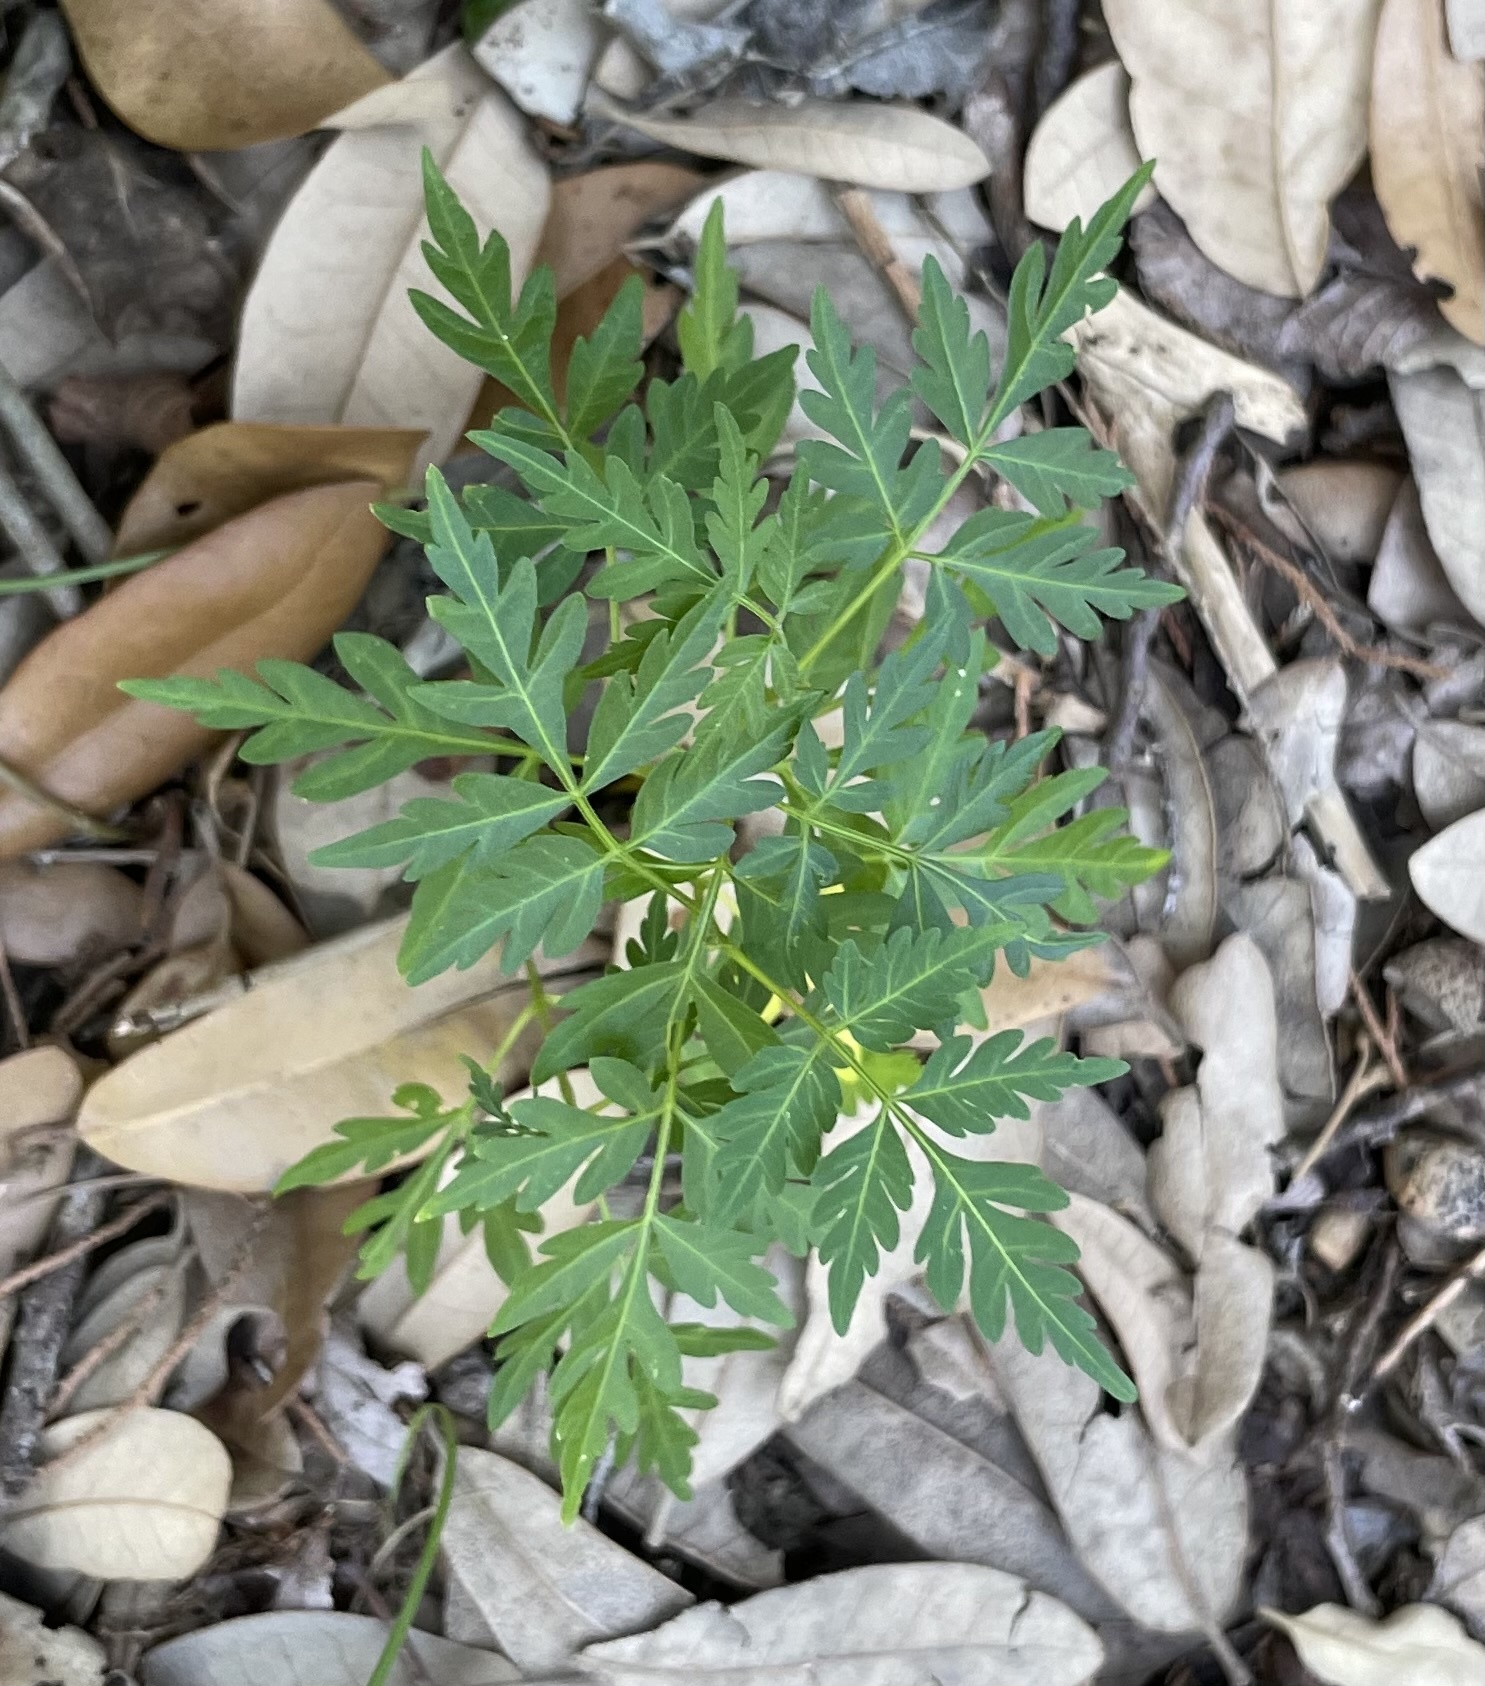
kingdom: Plantae
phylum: Tracheophyta
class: Magnoliopsida
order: Sapindales
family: Meliaceae
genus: Melia
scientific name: Melia azedarach
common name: Chinaberrytree
